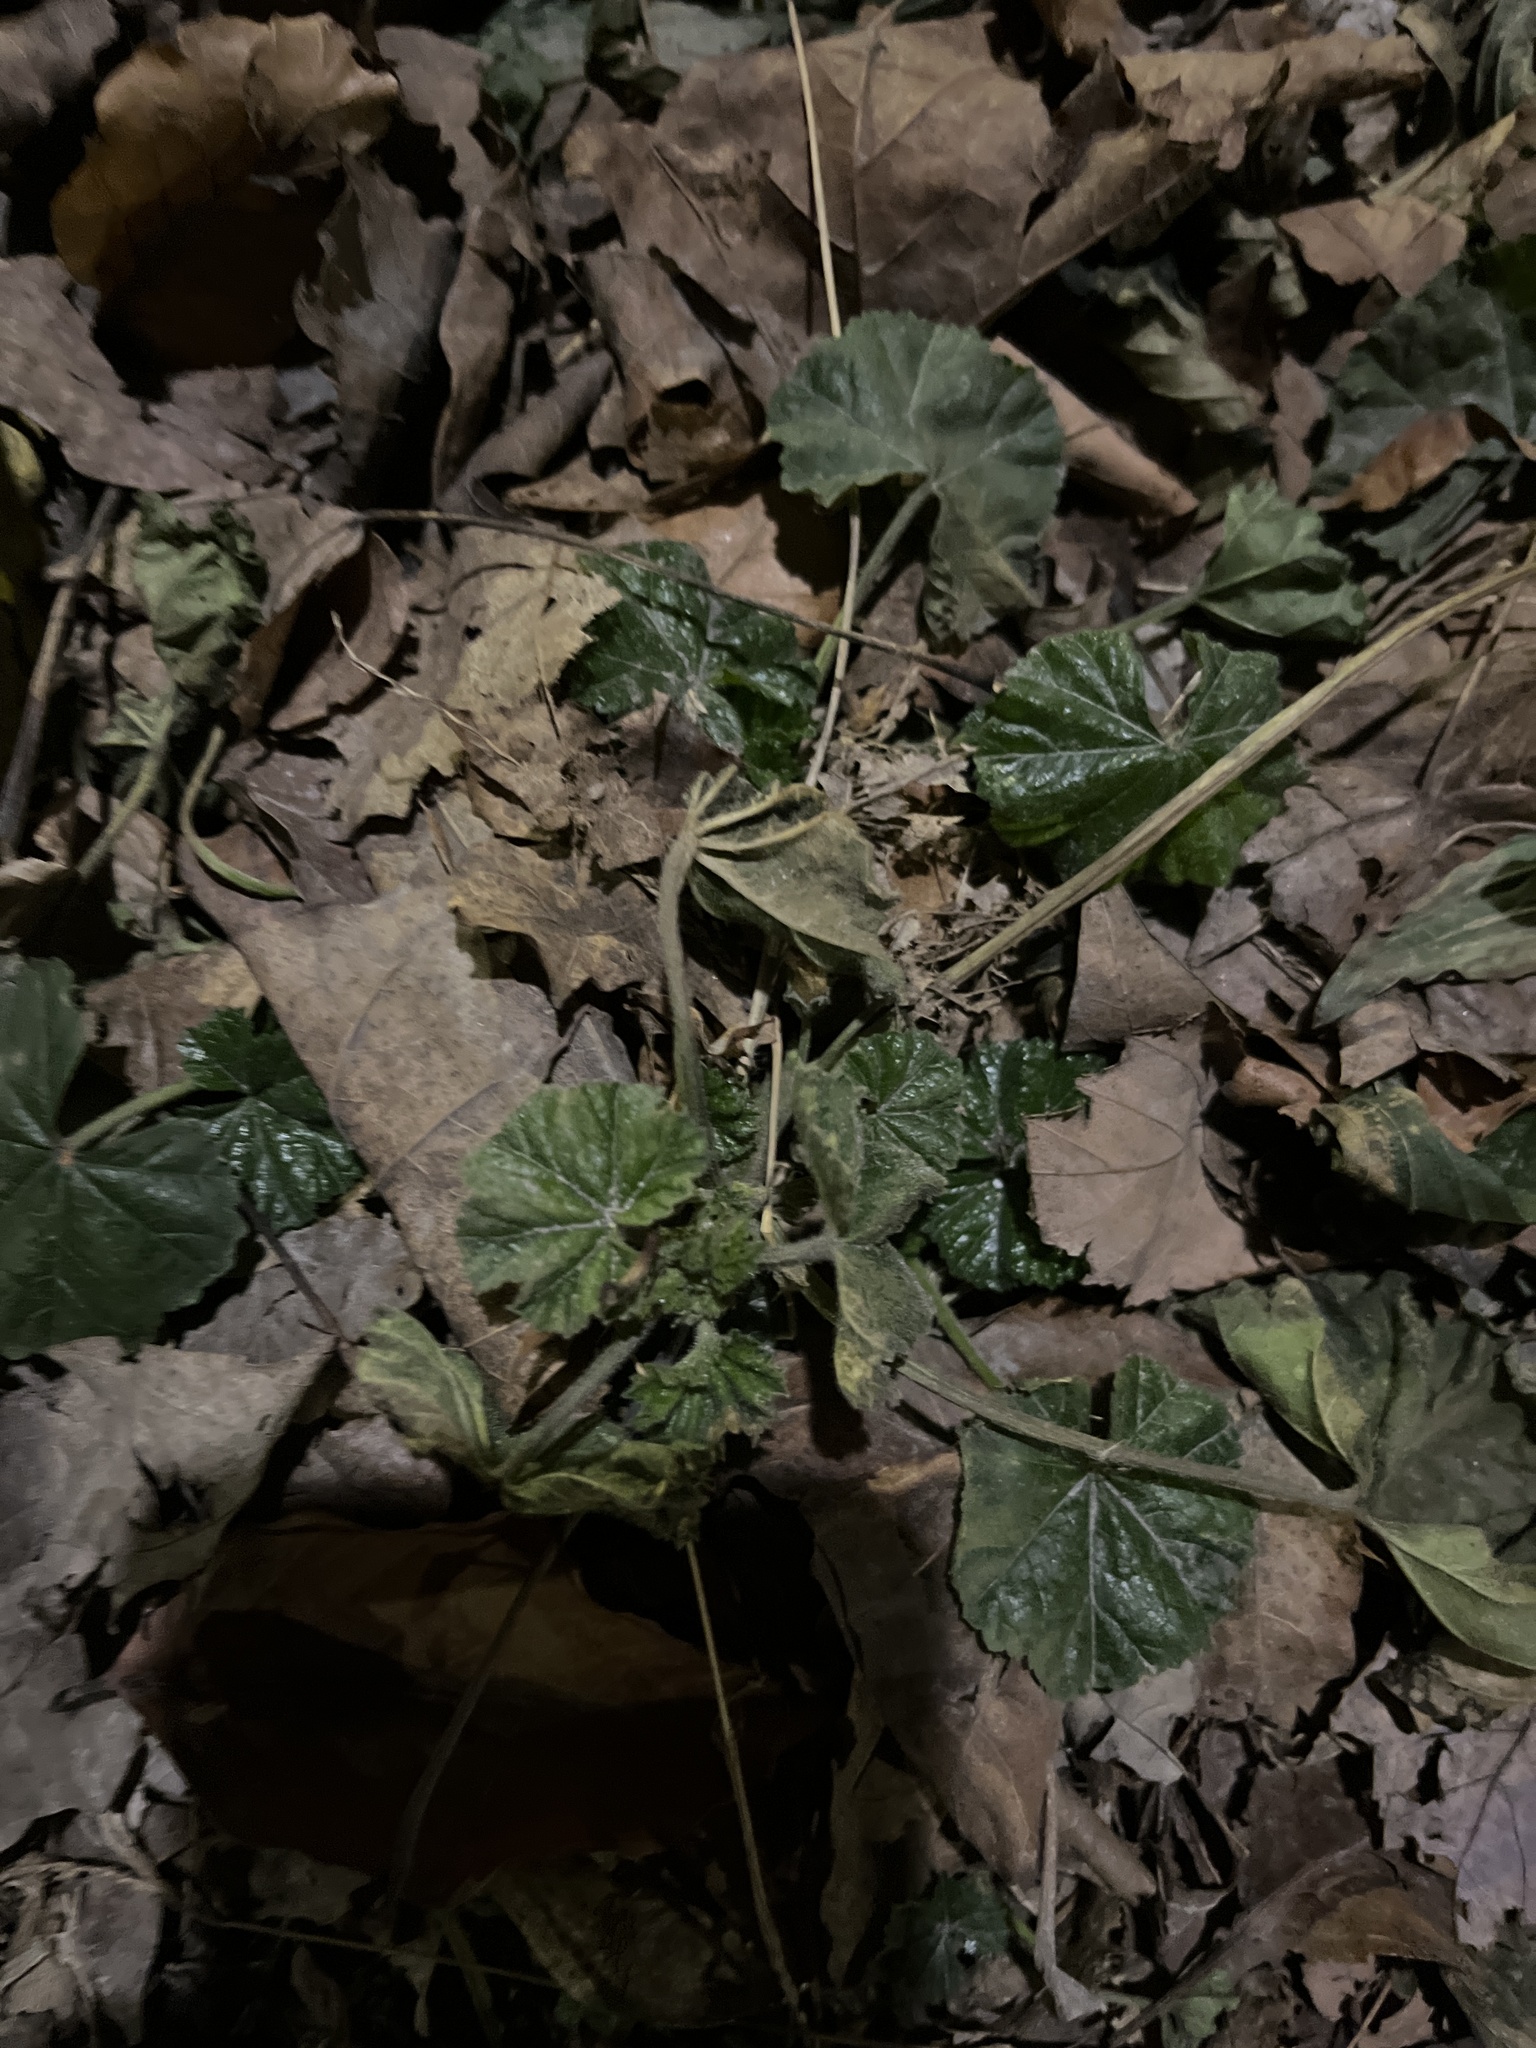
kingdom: Plantae
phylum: Tracheophyta
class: Magnoliopsida
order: Malvales
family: Malvaceae
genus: Malva
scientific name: Malva neglecta
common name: Common mallow
